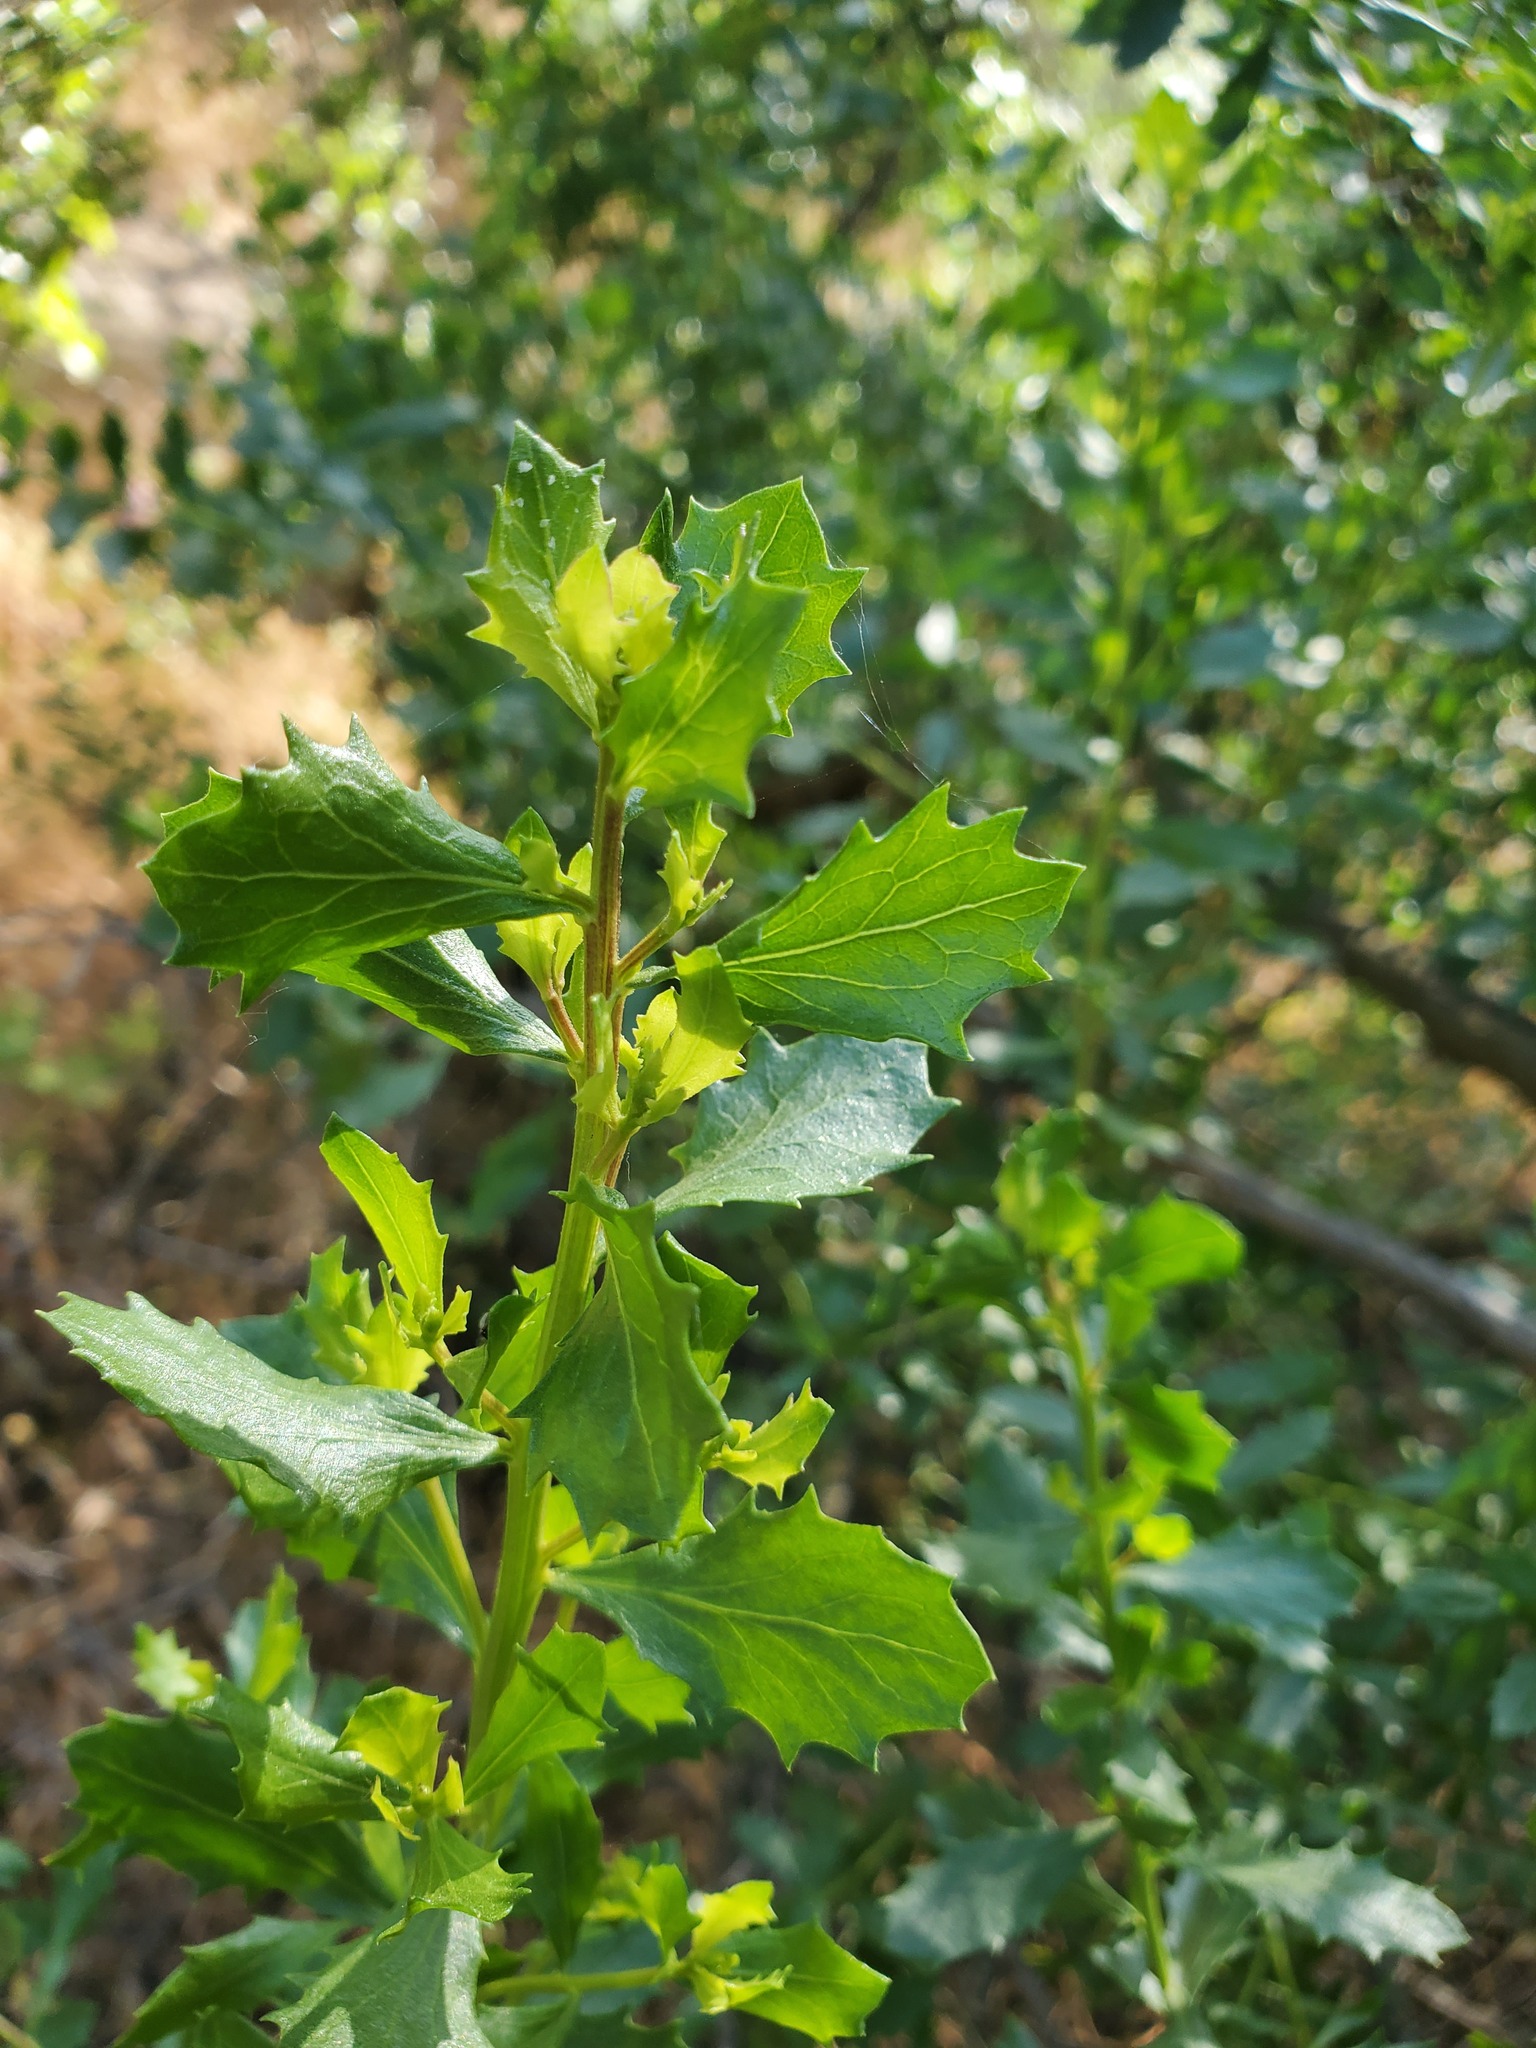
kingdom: Plantae
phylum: Tracheophyta
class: Magnoliopsida
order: Asterales
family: Asteraceae
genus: Baccharis
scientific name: Baccharis pilularis
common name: Coyotebrush
